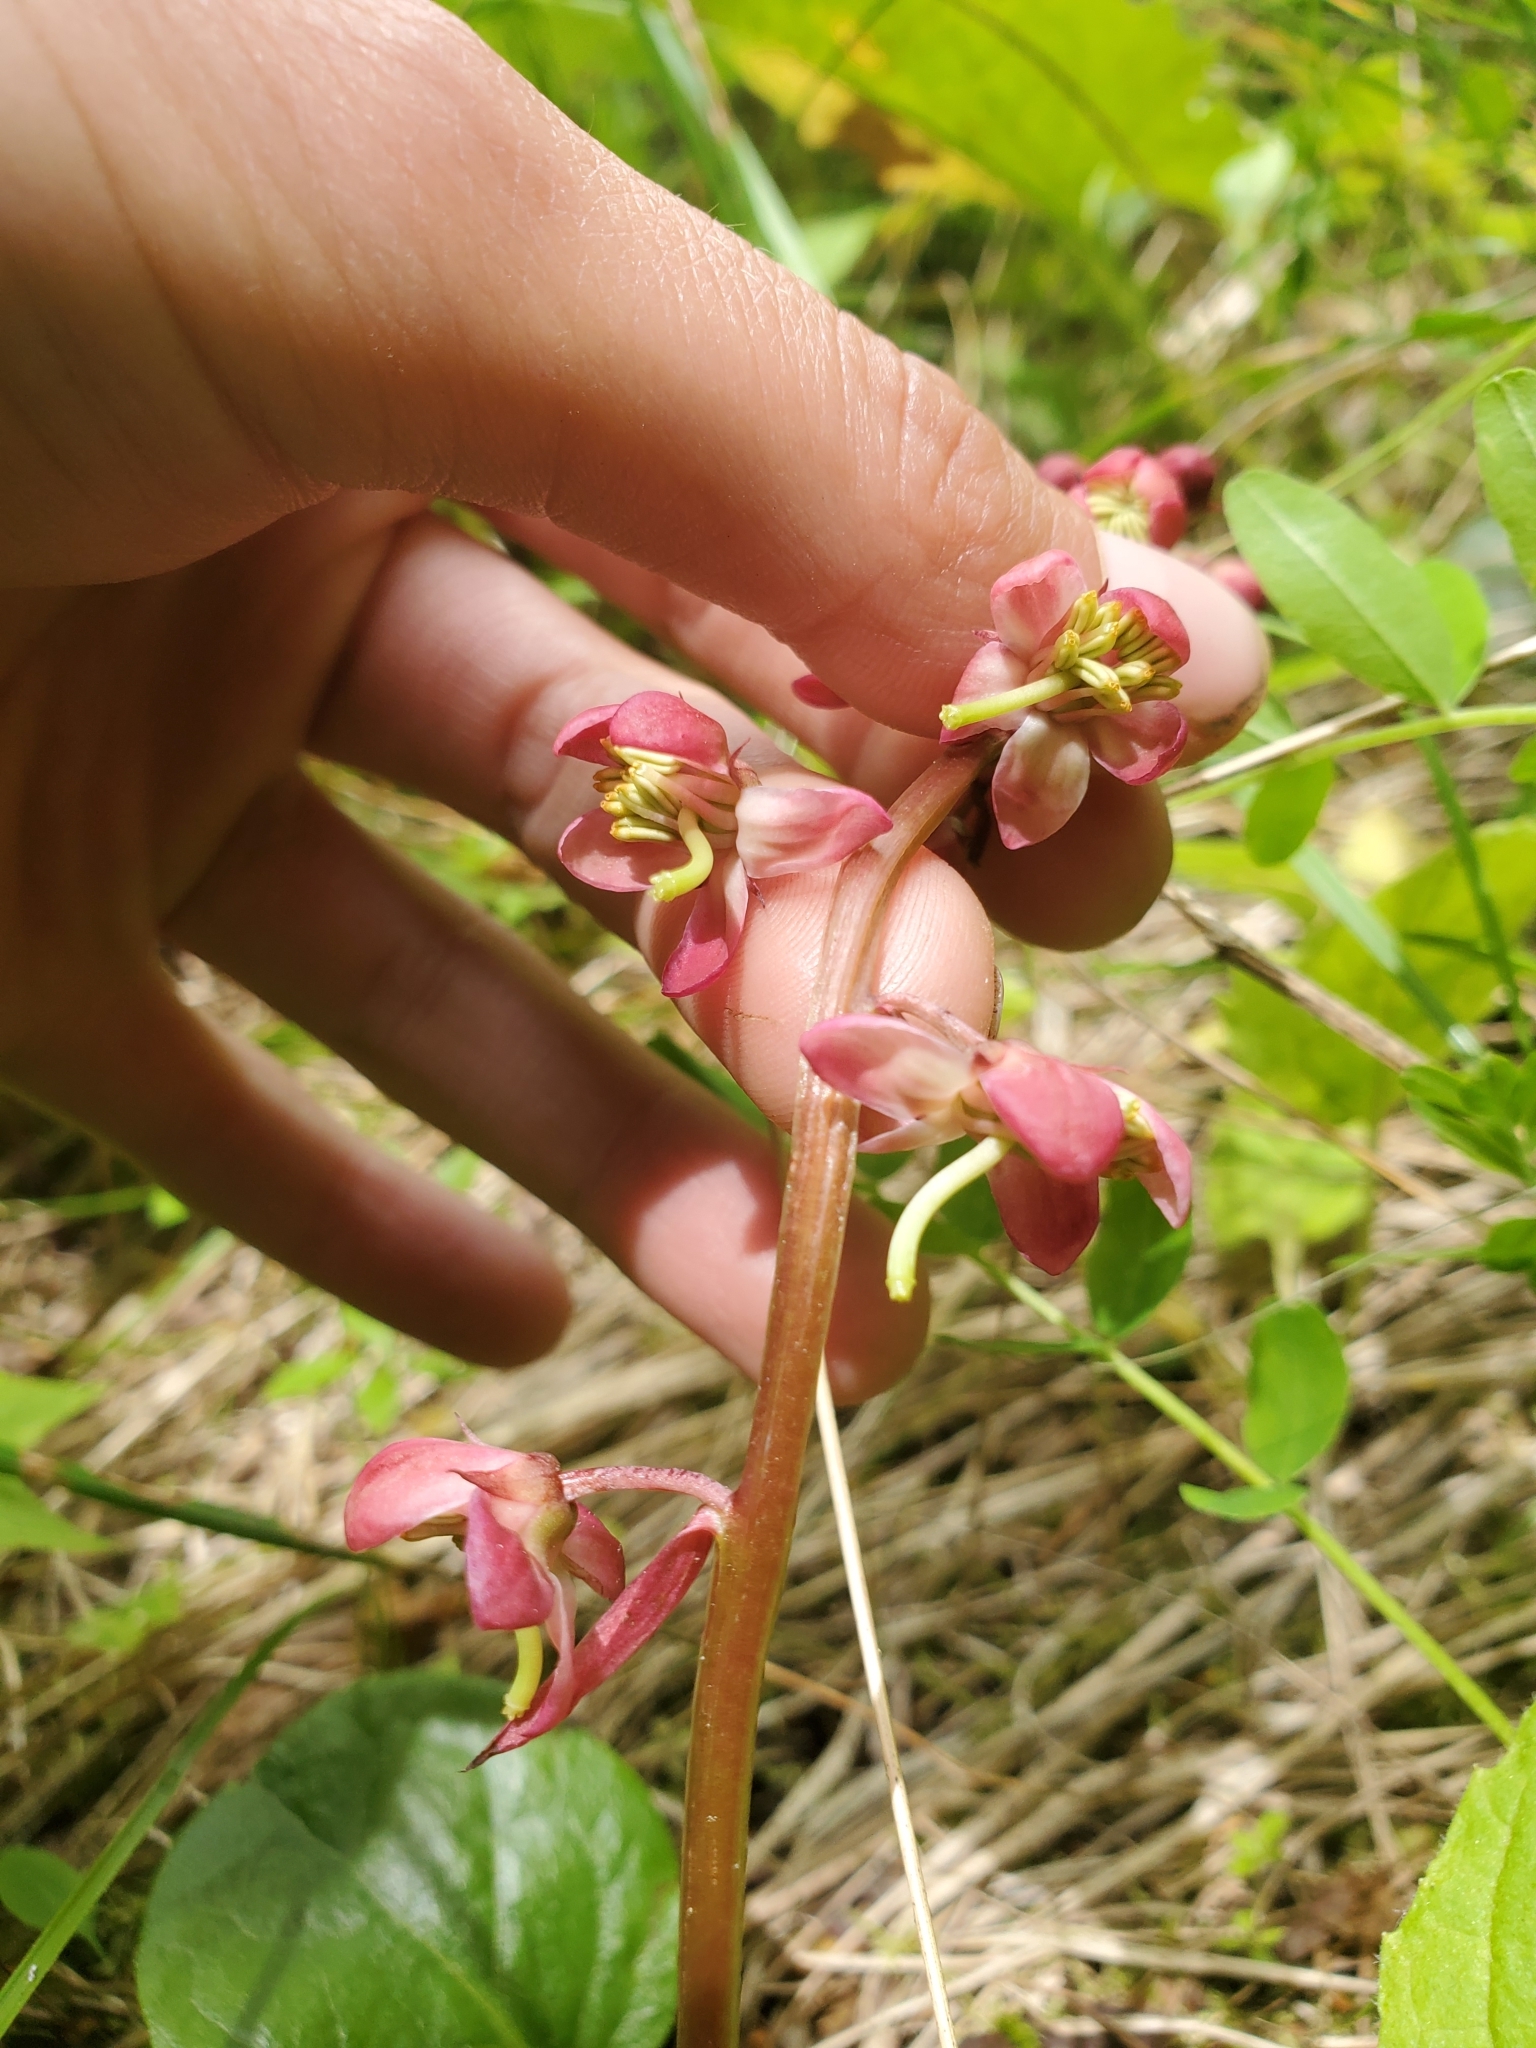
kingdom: Plantae
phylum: Tracheophyta
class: Magnoliopsida
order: Ericales
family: Ericaceae
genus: Pyrola
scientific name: Pyrola asarifolia
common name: Bog wintergreen
